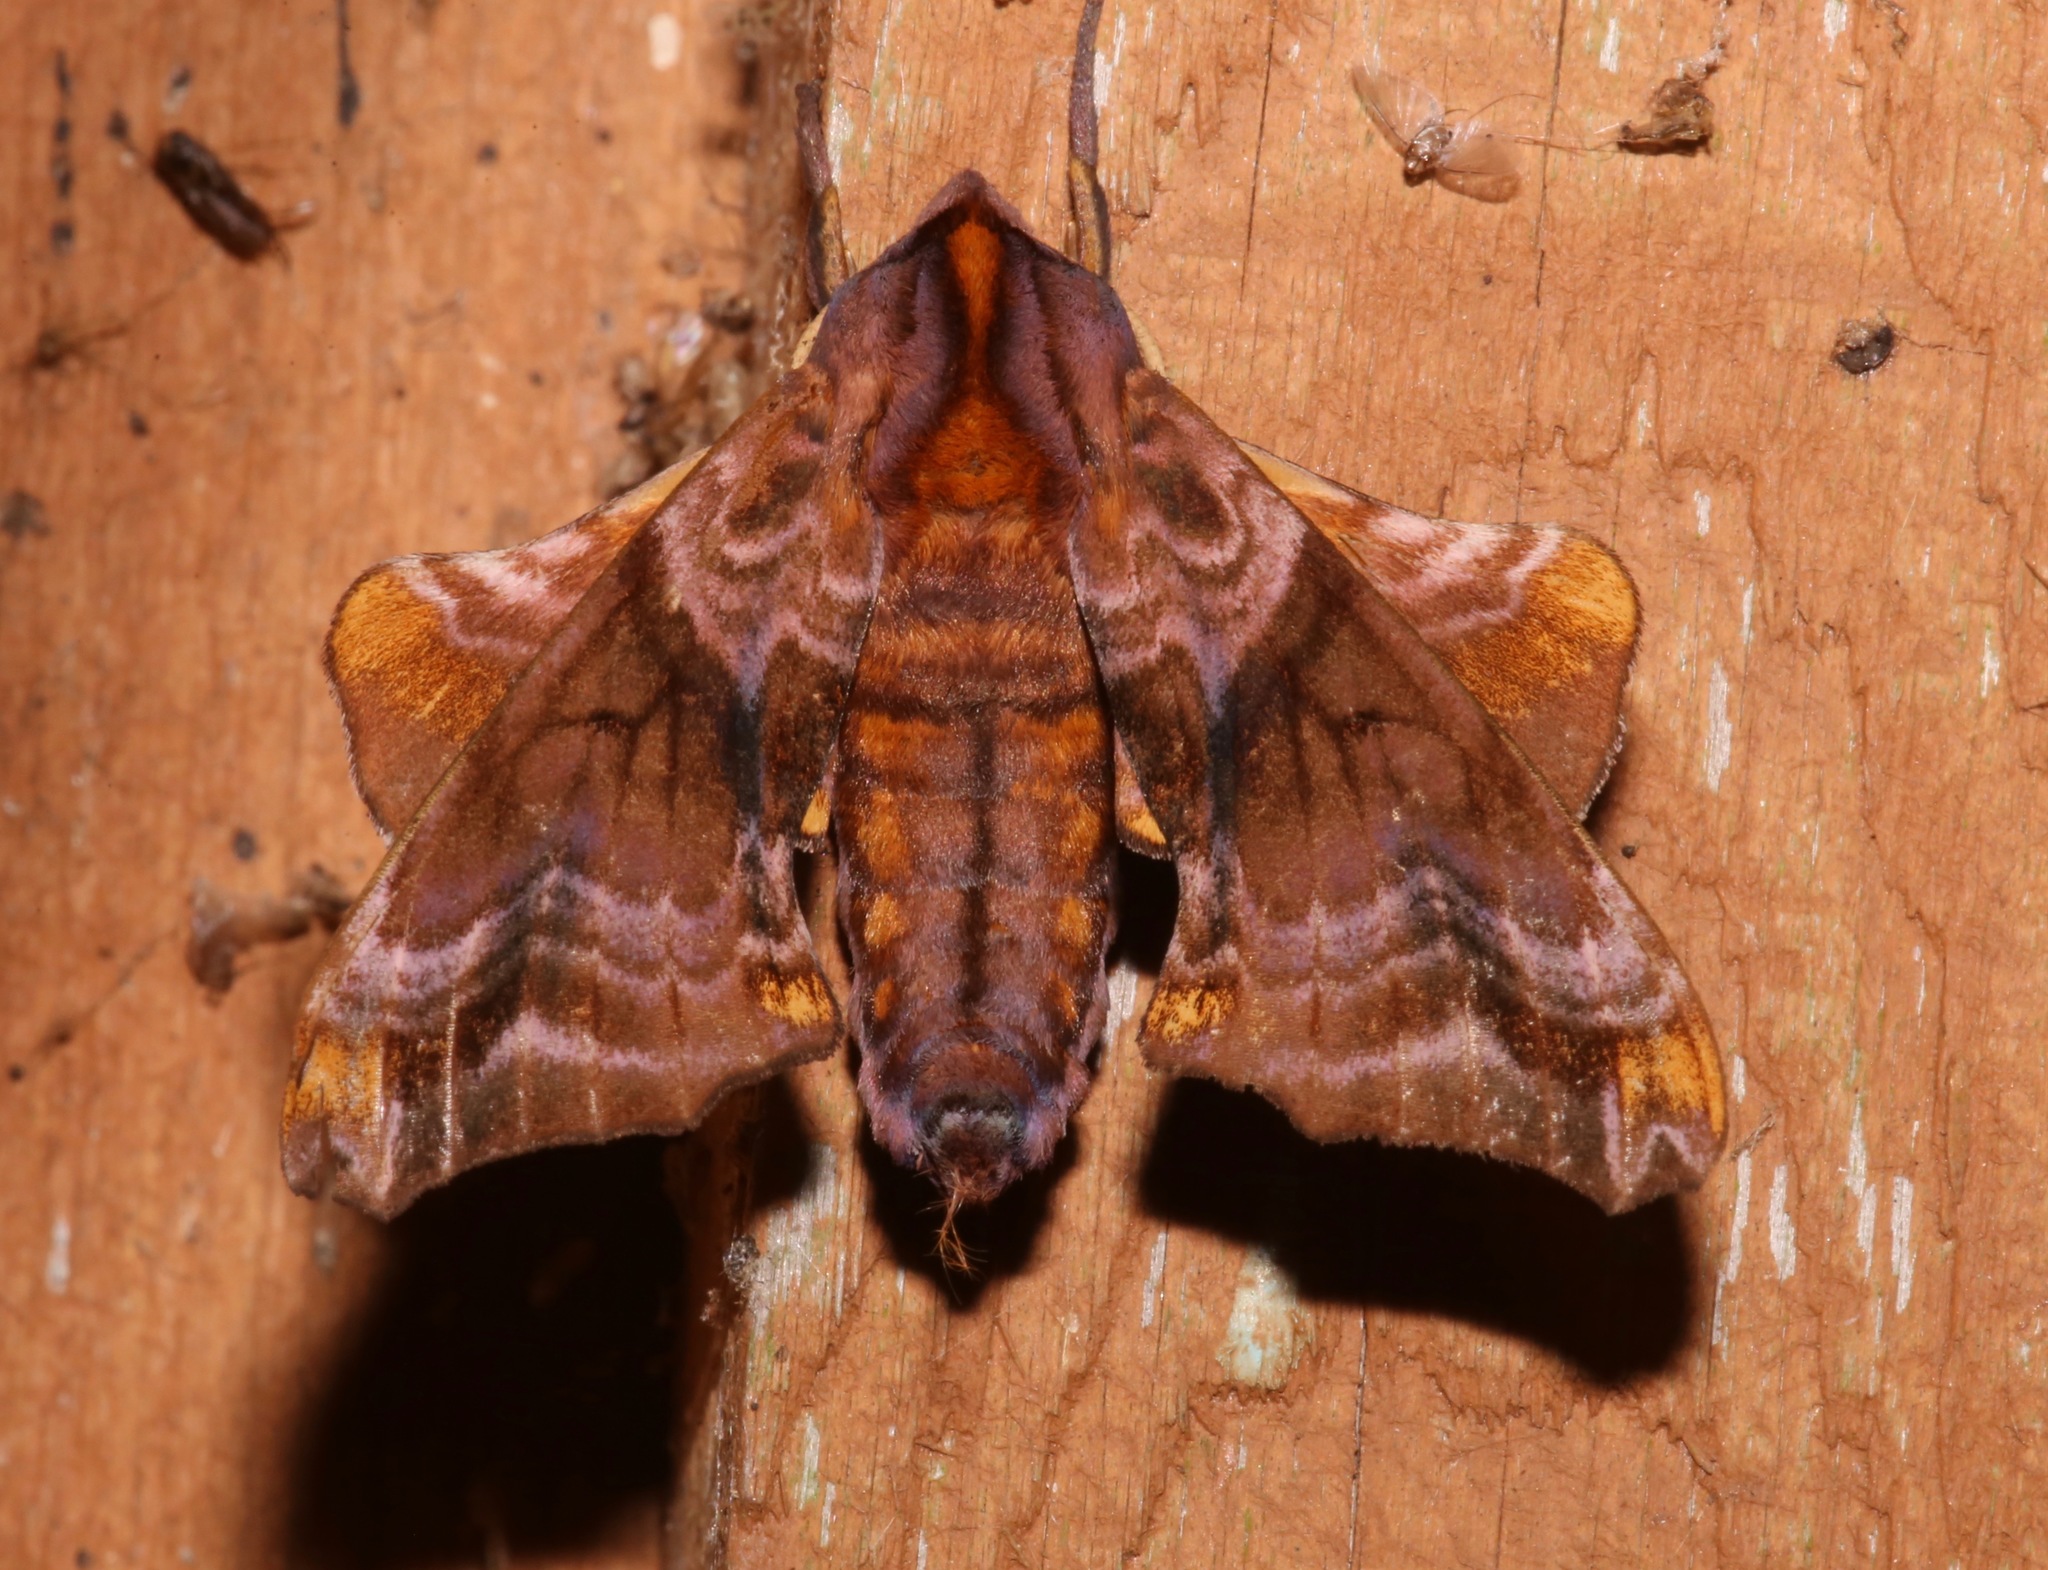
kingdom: Animalia
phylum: Arthropoda
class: Insecta
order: Lepidoptera
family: Sphingidae
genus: Paonias
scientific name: Paonias myops
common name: Small-eyed sphinx
